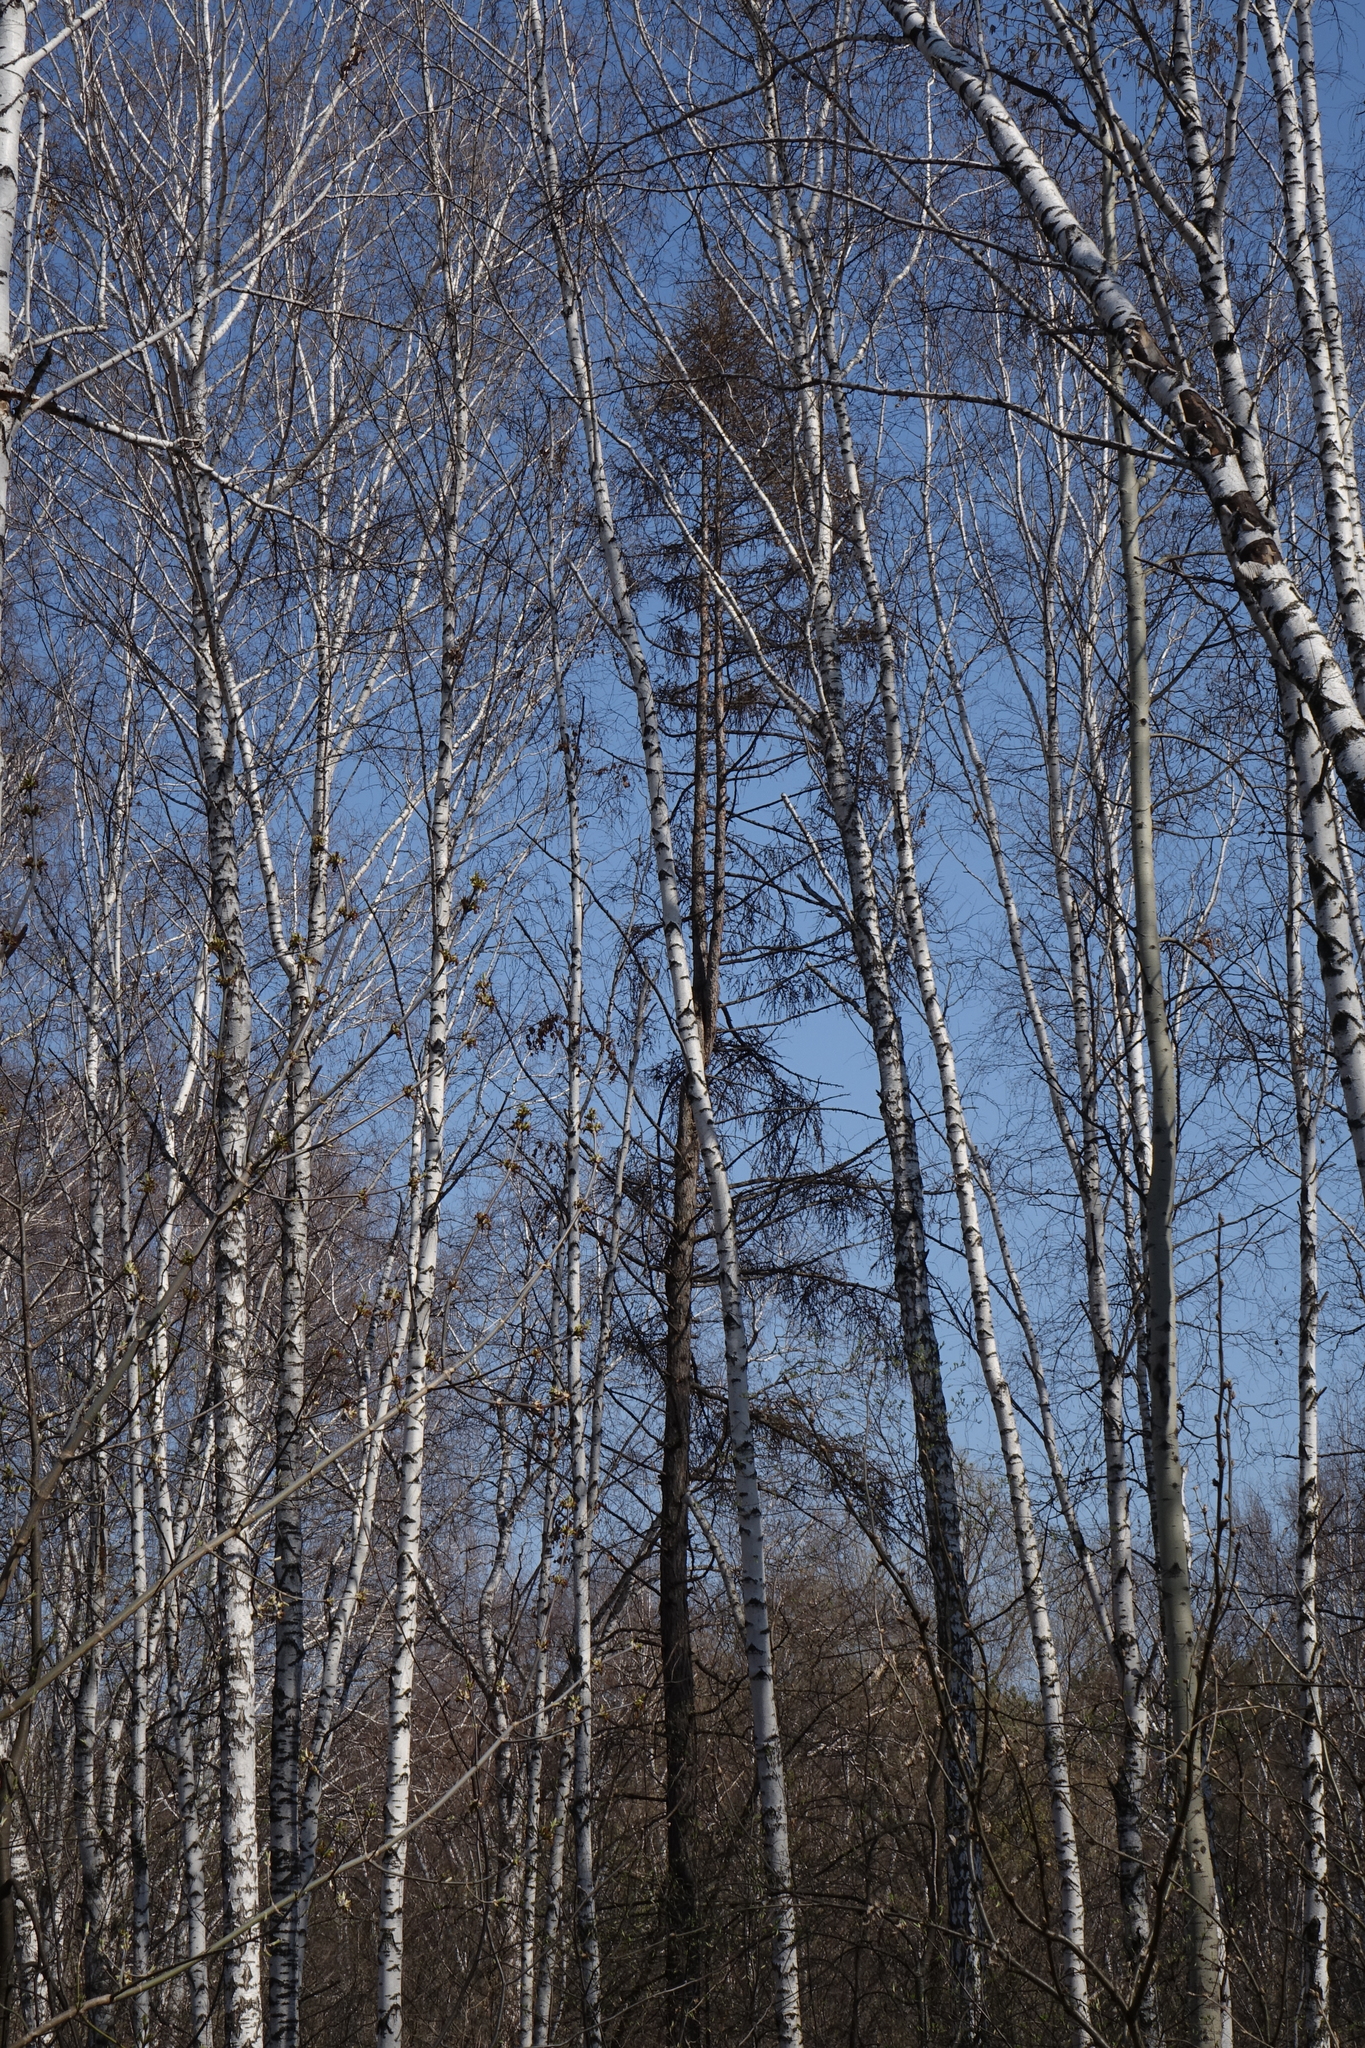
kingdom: Plantae
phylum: Tracheophyta
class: Pinopsida
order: Pinales
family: Pinaceae
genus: Larix
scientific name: Larix sibirica
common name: Siberian larch
